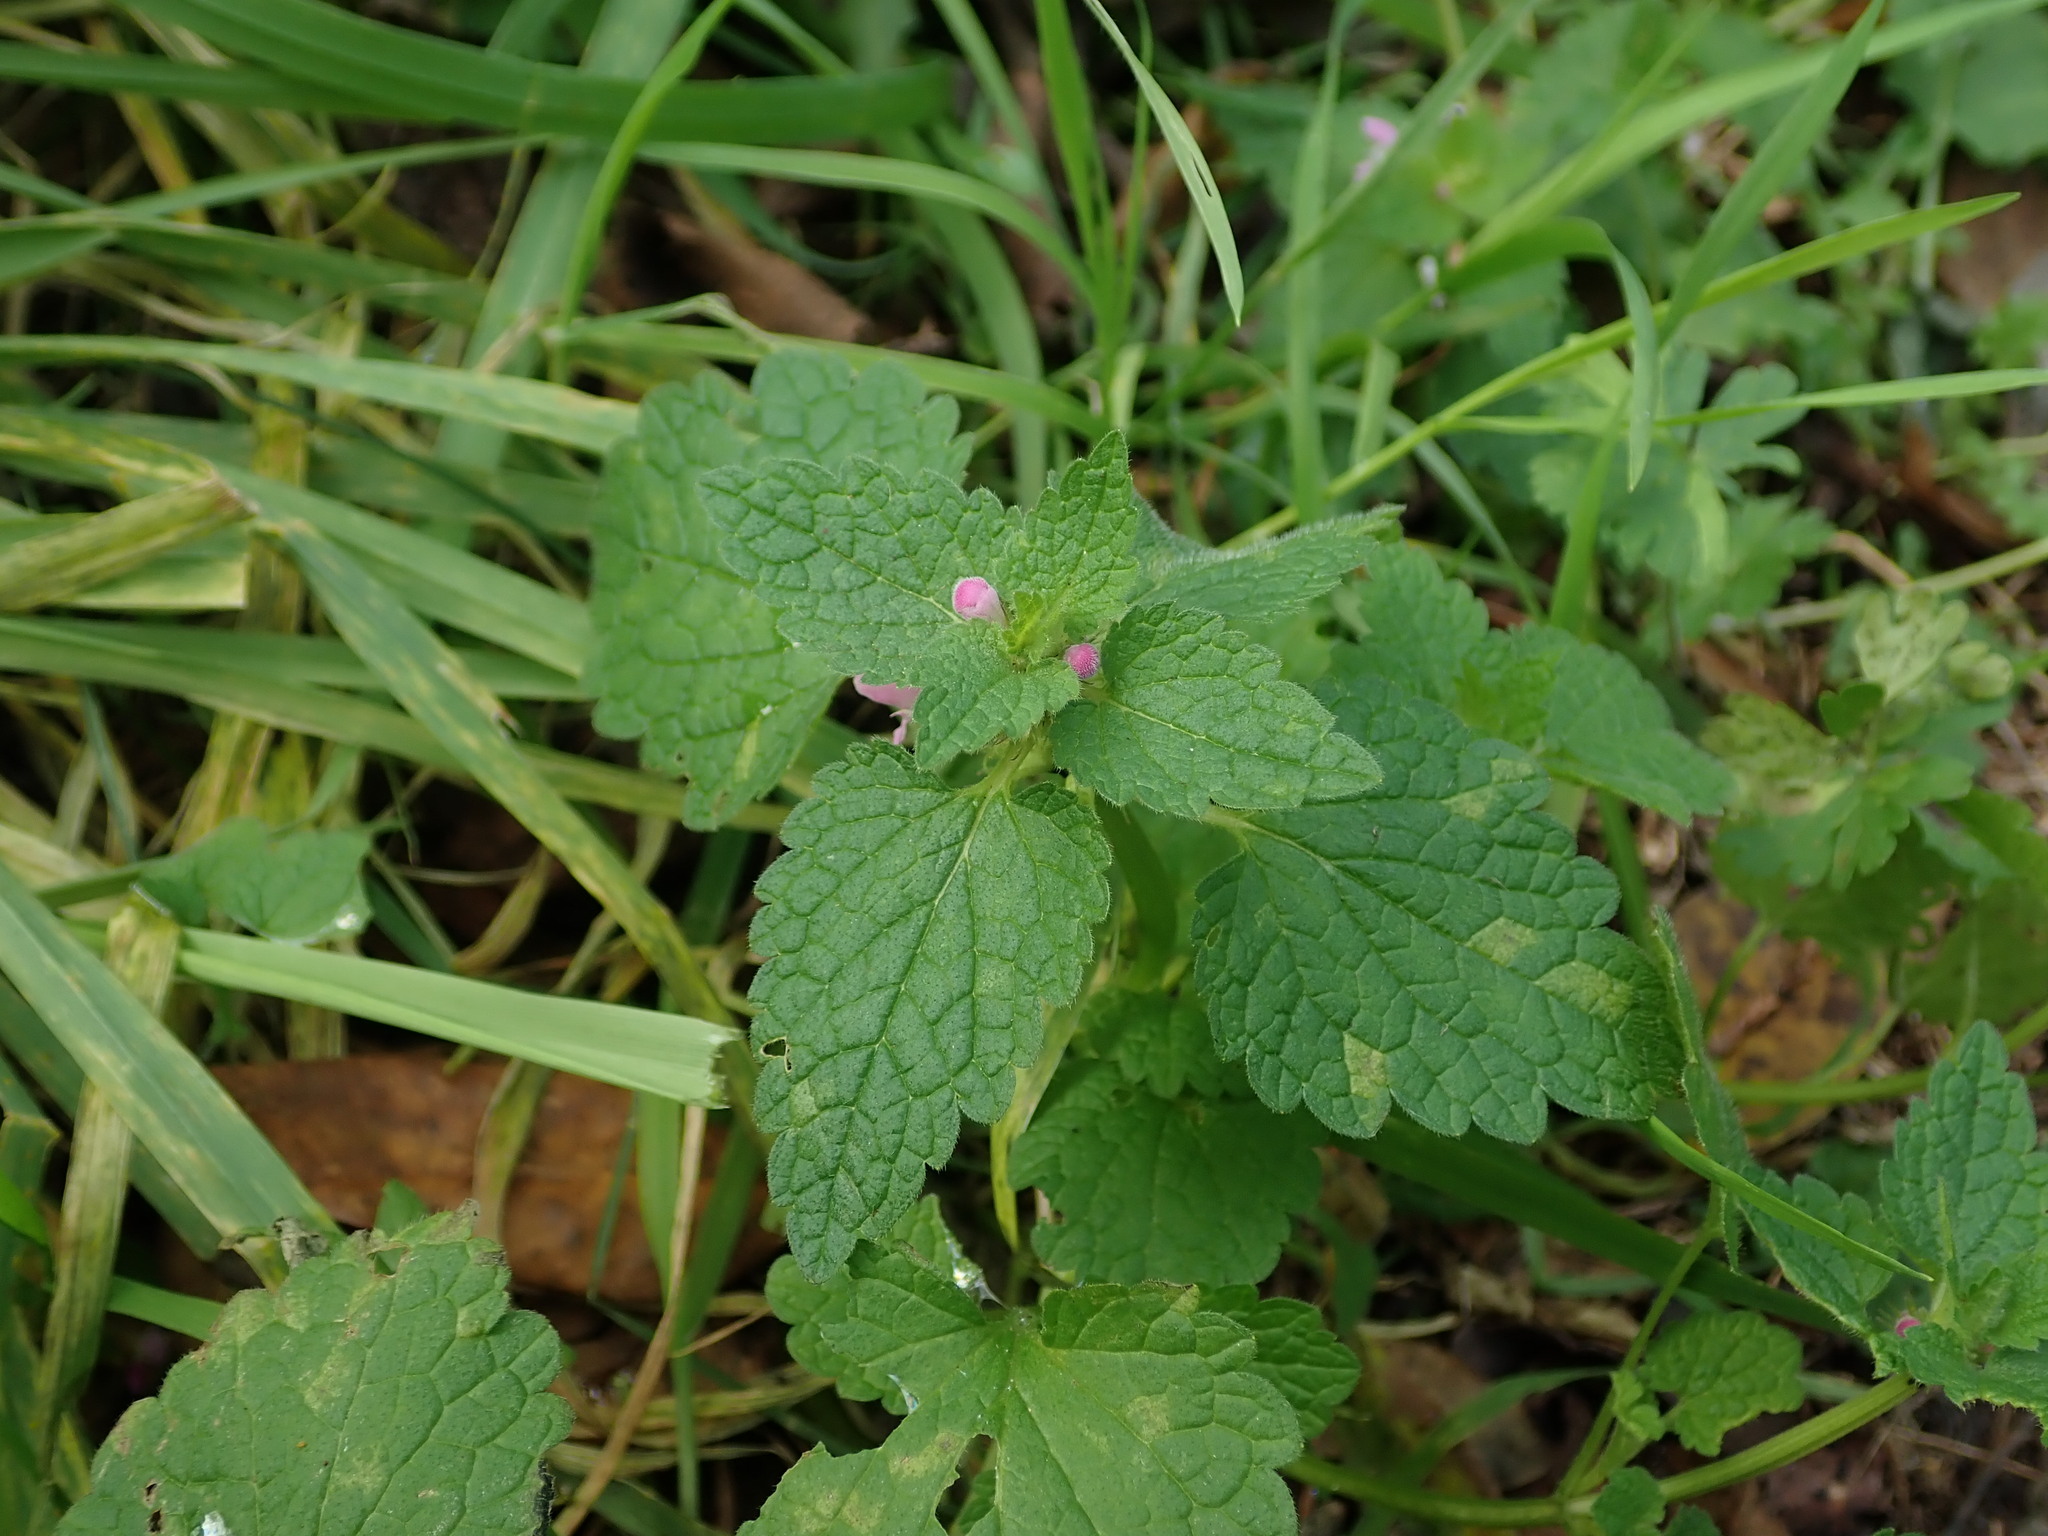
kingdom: Plantae
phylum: Tracheophyta
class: Magnoliopsida
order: Lamiales
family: Lamiaceae
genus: Lamium
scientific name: Lamium purpureum
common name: Red dead-nettle
